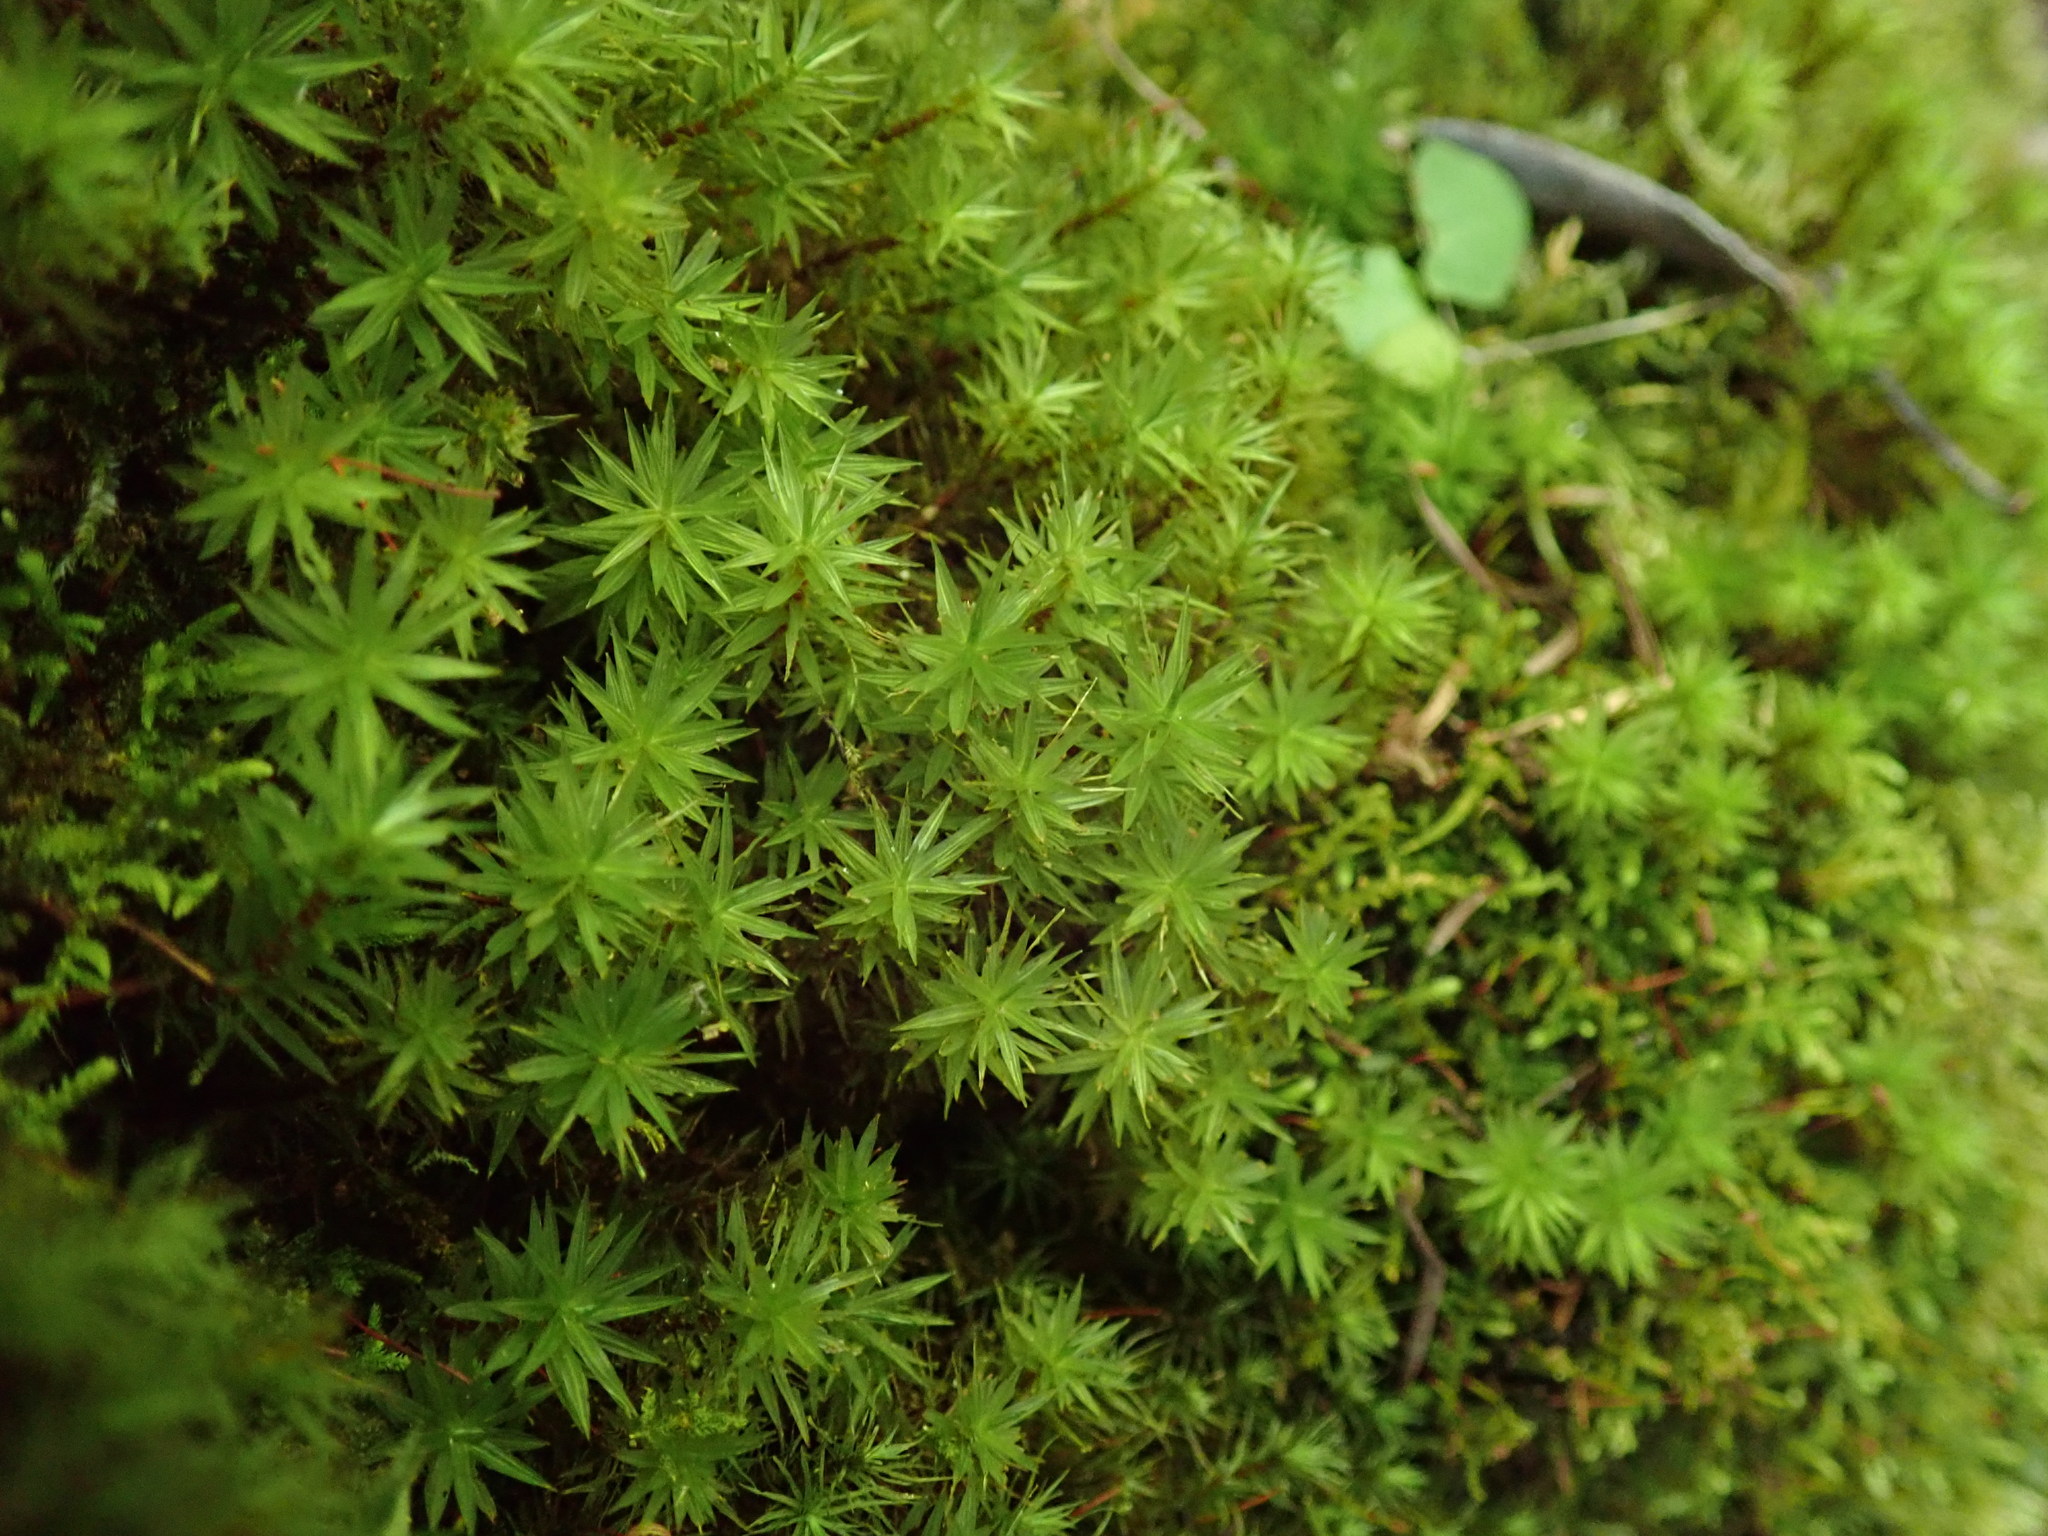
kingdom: Plantae
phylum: Bryophyta
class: Bryopsida
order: Timmiales
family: Timmiaceae
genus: Timmia
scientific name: Timmia austriaca
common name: Austrian timmia
